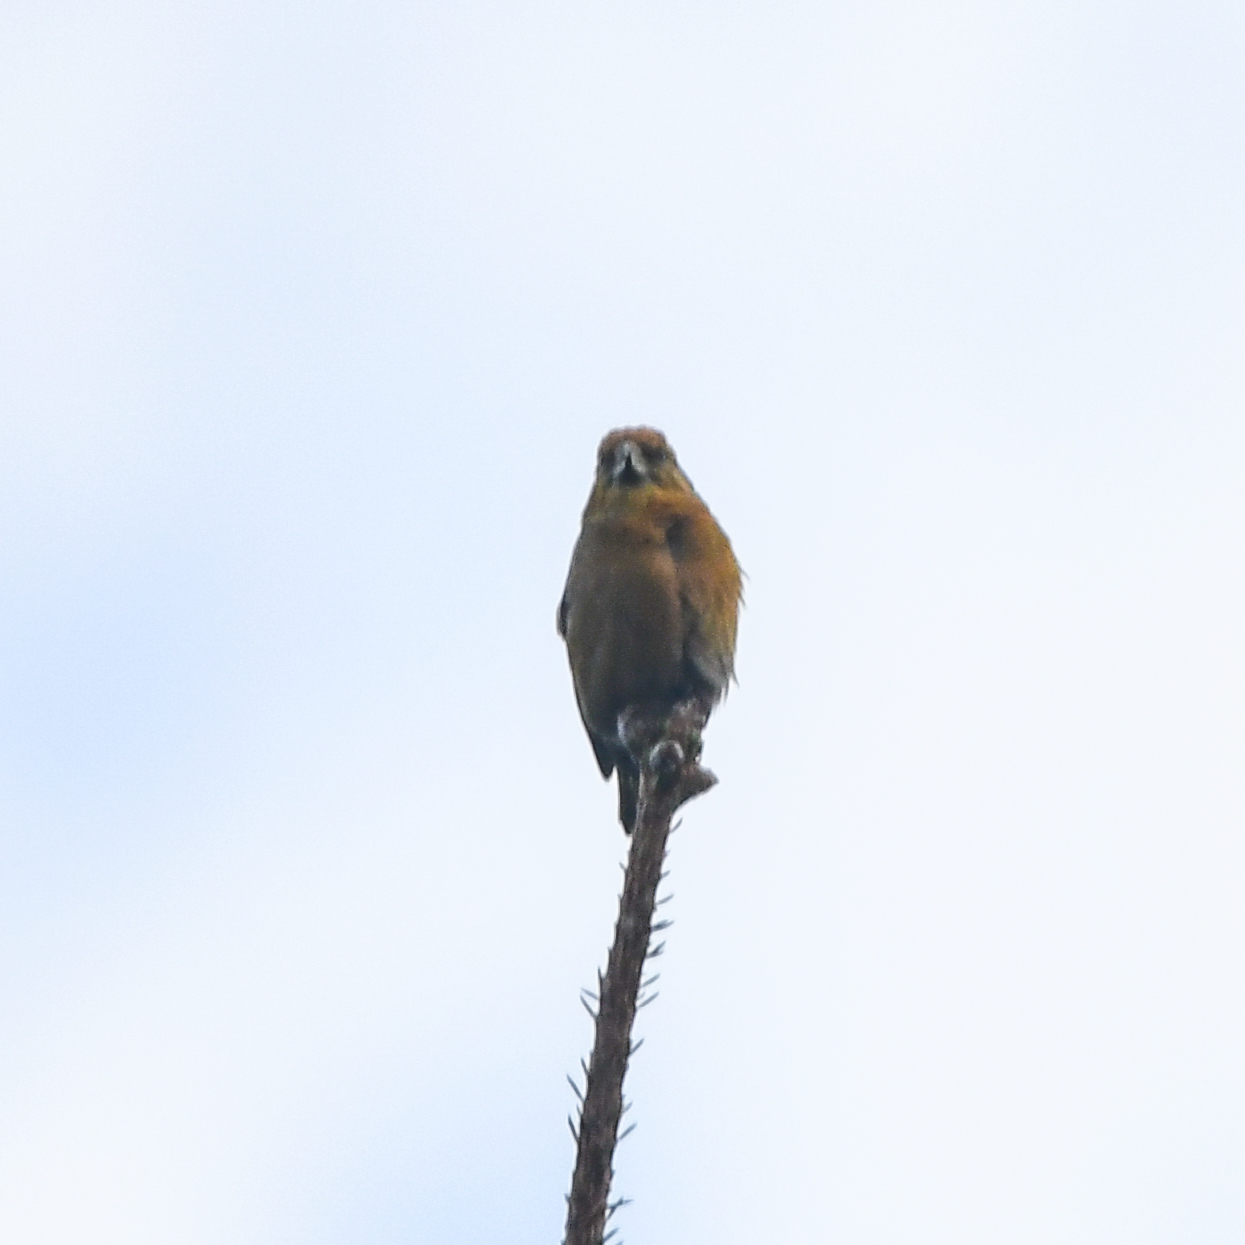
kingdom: Animalia
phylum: Chordata
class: Aves
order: Passeriformes
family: Fringillidae
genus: Loxia
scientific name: Loxia curvirostra
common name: Red crossbill
